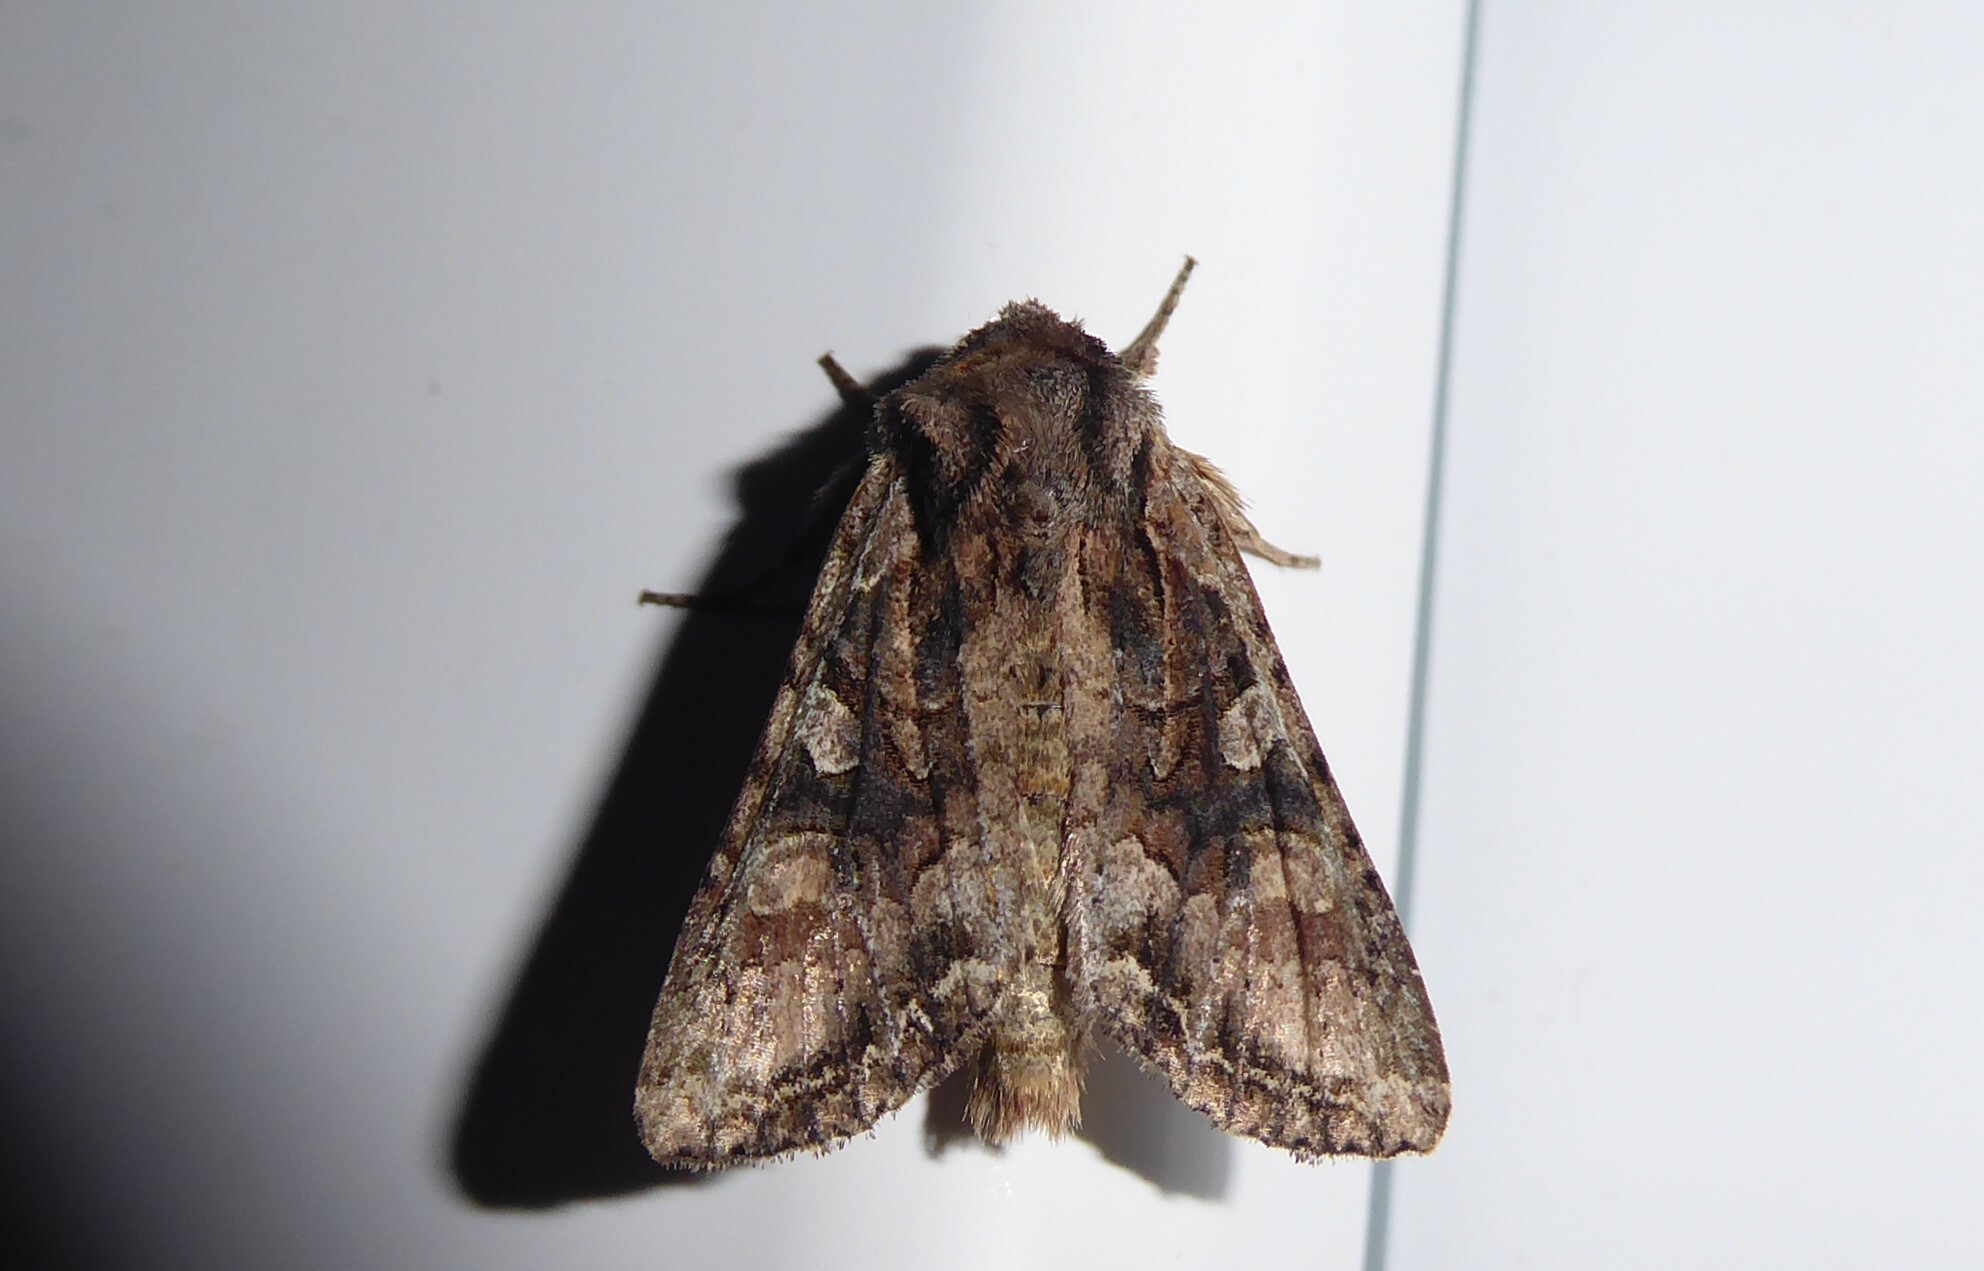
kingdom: Animalia
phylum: Arthropoda
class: Insecta
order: Lepidoptera
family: Noctuidae
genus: Ichneutica
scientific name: Ichneutica mutans
